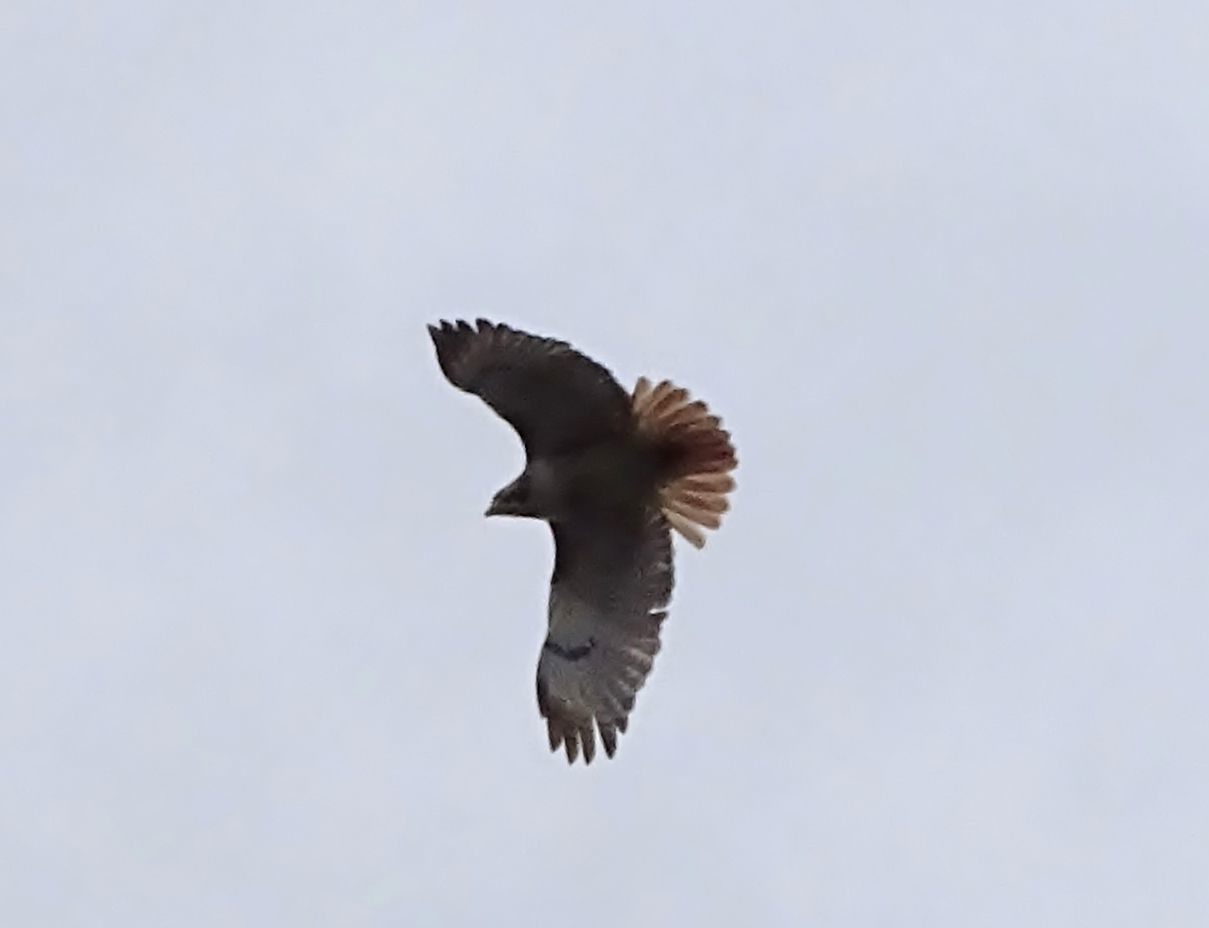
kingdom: Animalia
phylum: Chordata
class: Aves
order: Accipitriformes
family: Accipitridae
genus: Buteo
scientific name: Buteo jamaicensis
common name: Red-tailed hawk
